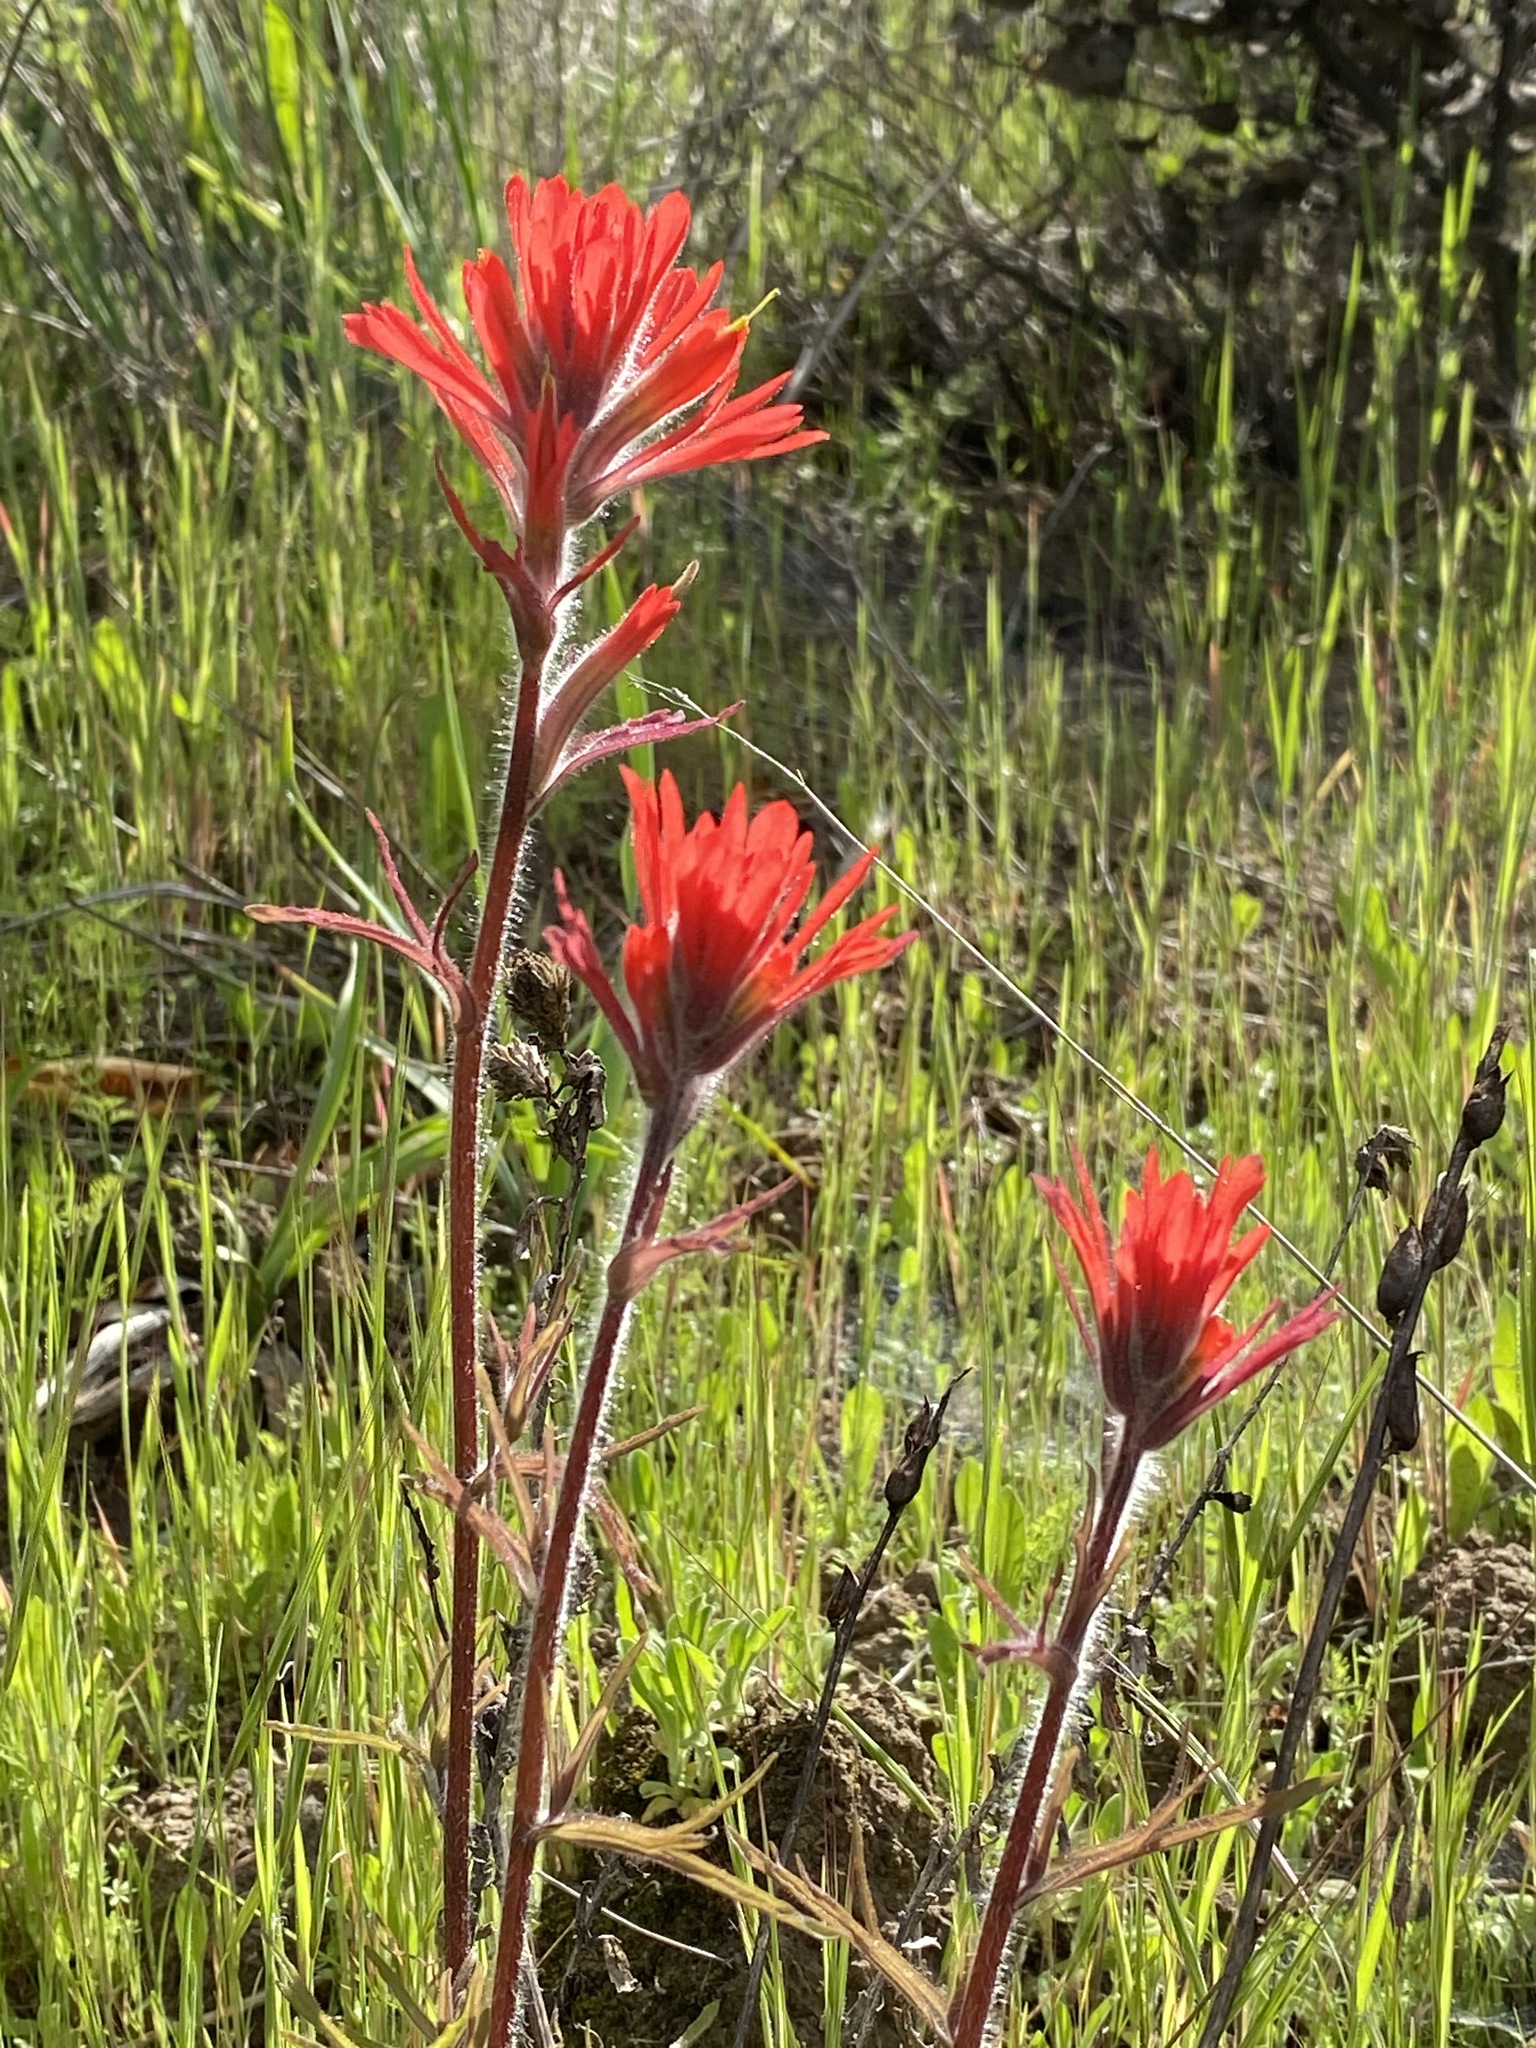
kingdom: Plantae
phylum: Tracheophyta
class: Magnoliopsida
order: Lamiales
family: Orobanchaceae
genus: Castilleja
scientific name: Castilleja affinis
